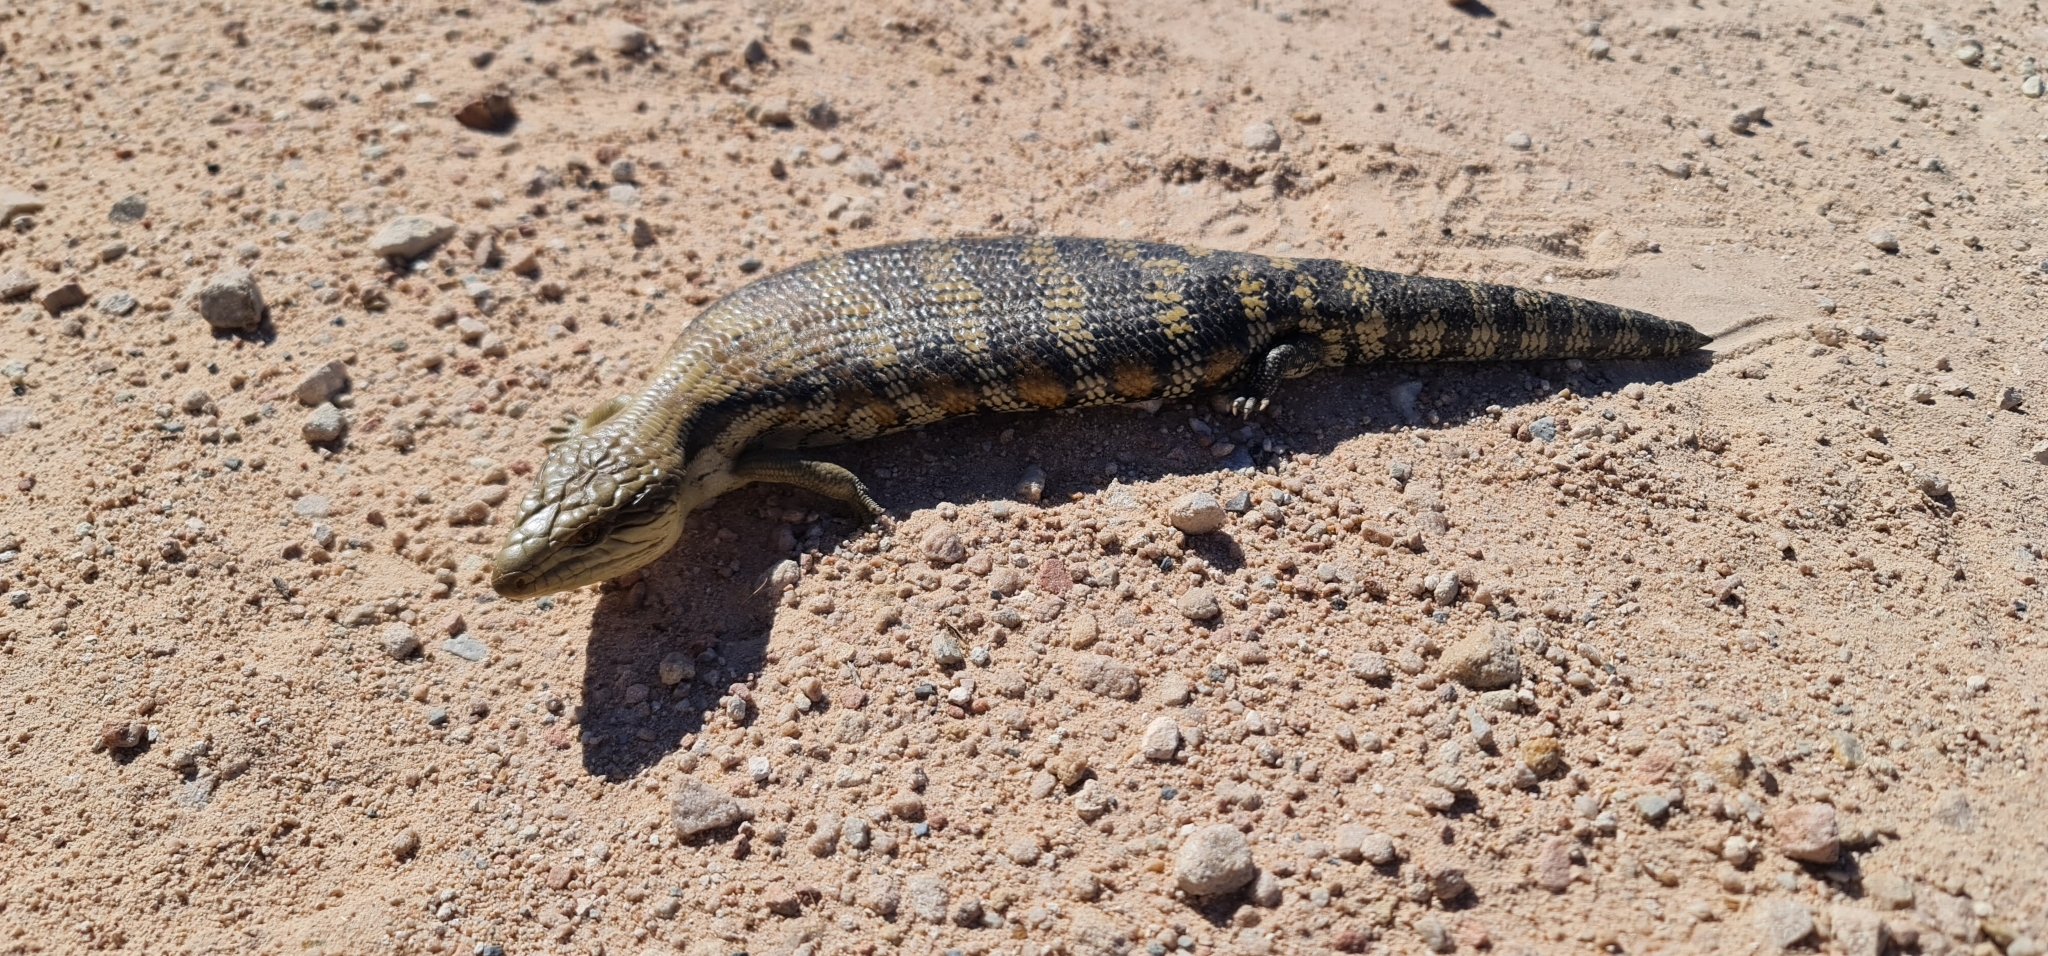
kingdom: Animalia
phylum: Chordata
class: Squamata
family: Scincidae
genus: Tiliqua
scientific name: Tiliqua scincoides
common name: Common bluetongue
